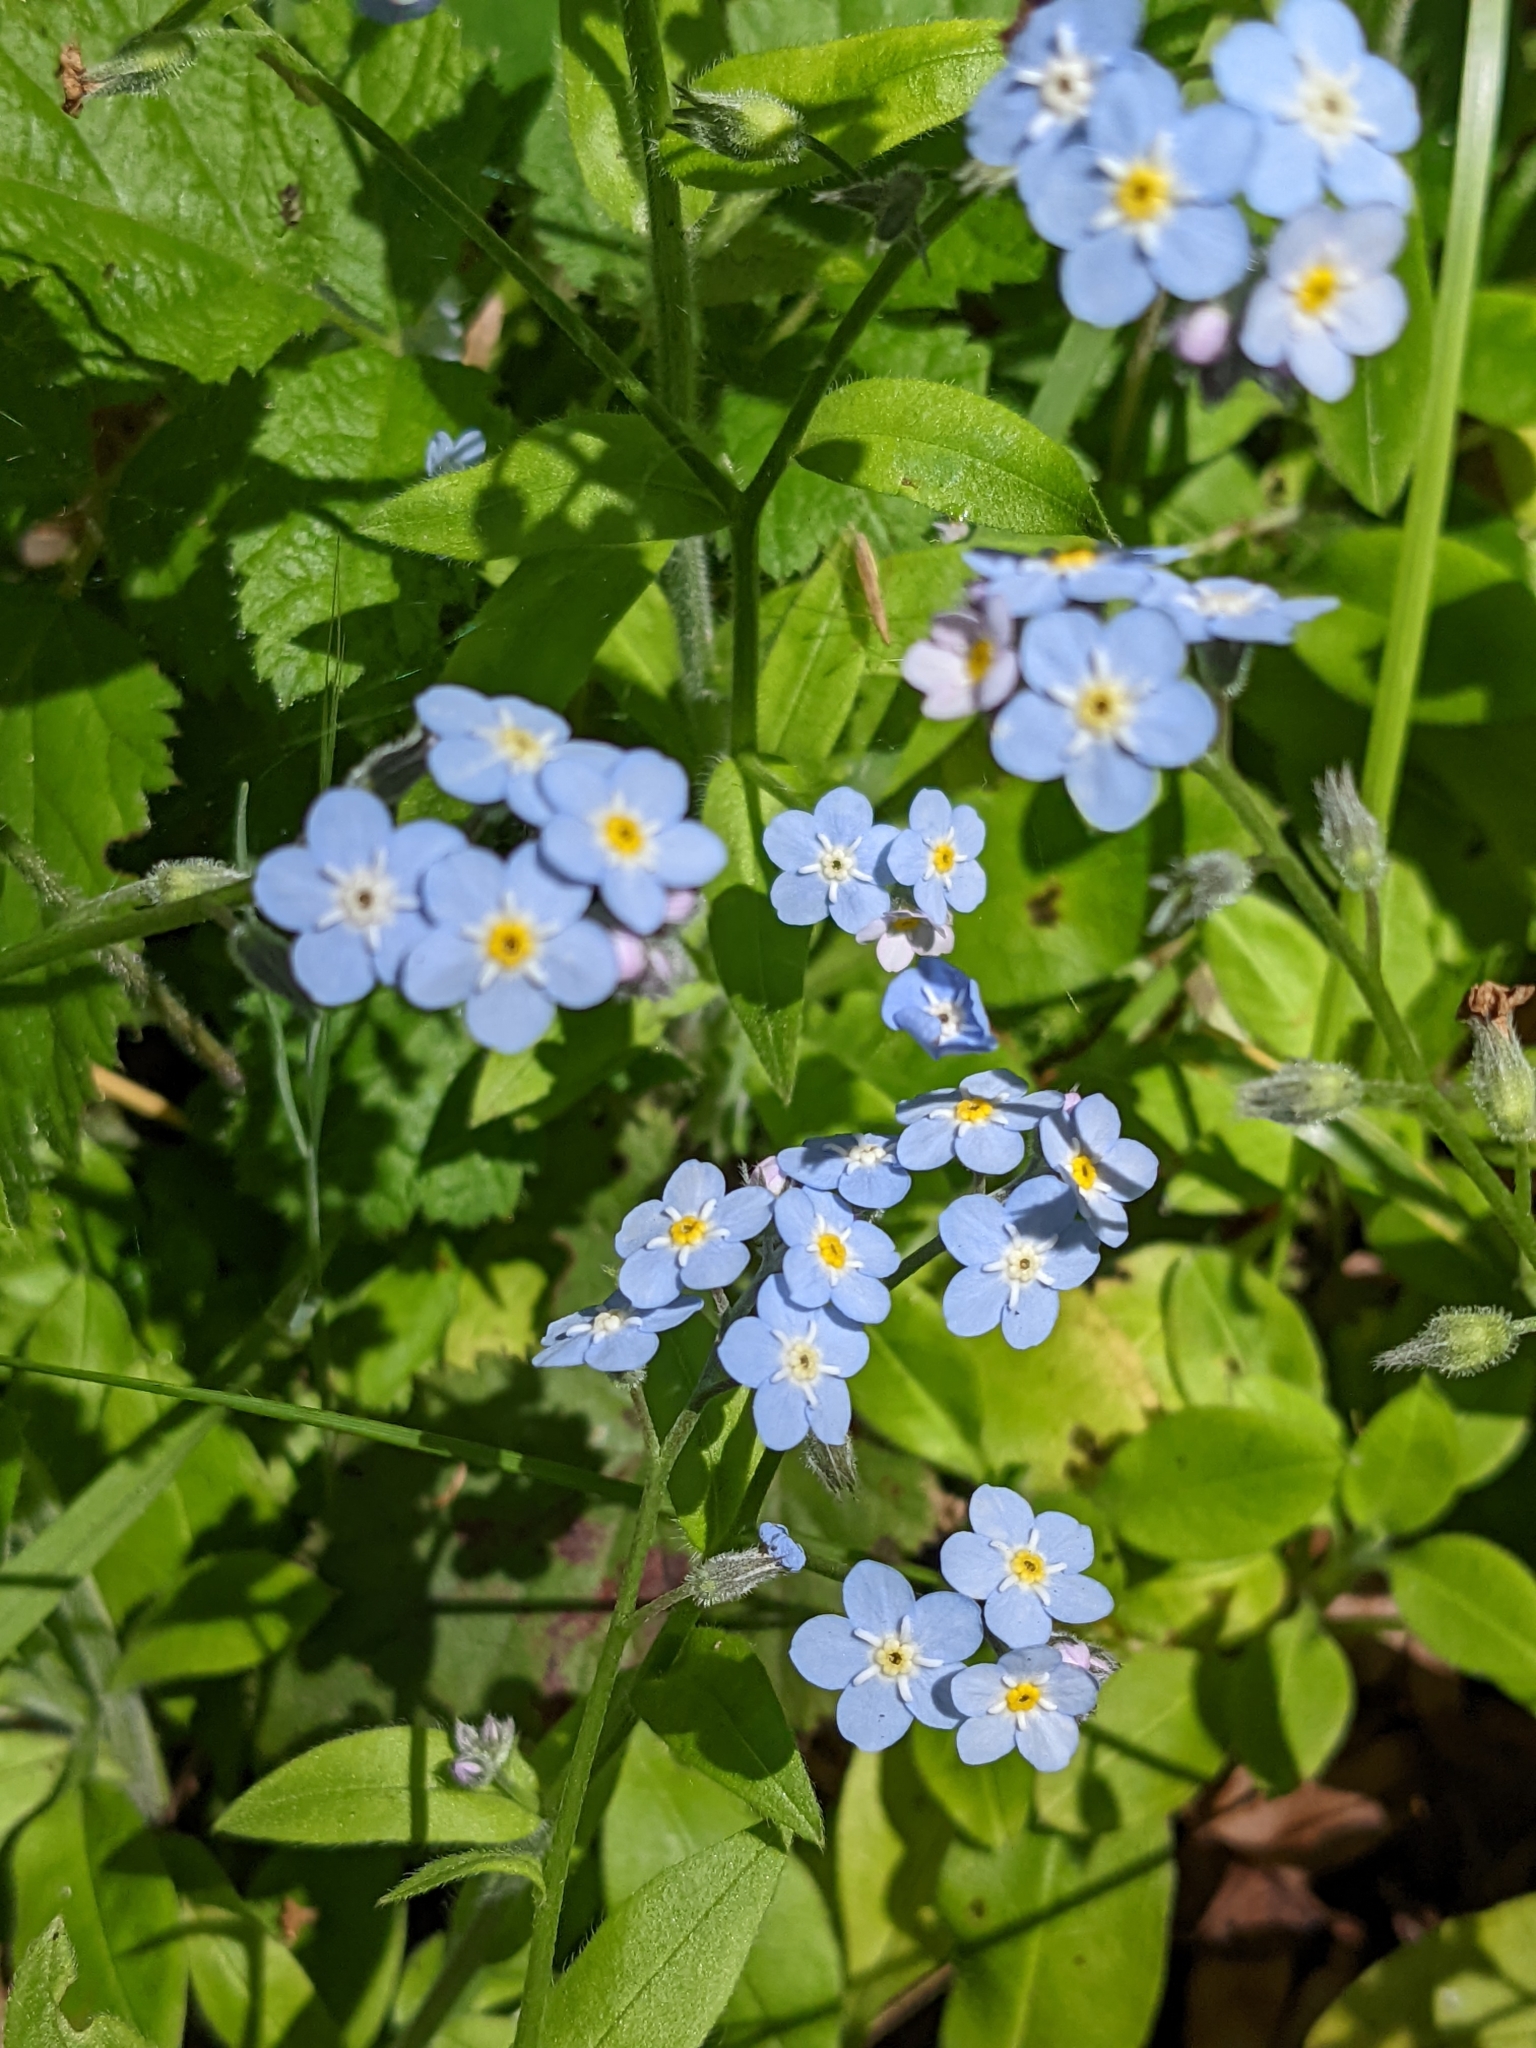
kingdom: Plantae
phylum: Tracheophyta
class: Magnoliopsida
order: Boraginales
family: Boraginaceae
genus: Myosotis
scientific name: Myosotis latifolia
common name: Broadleaf forget-me-not
